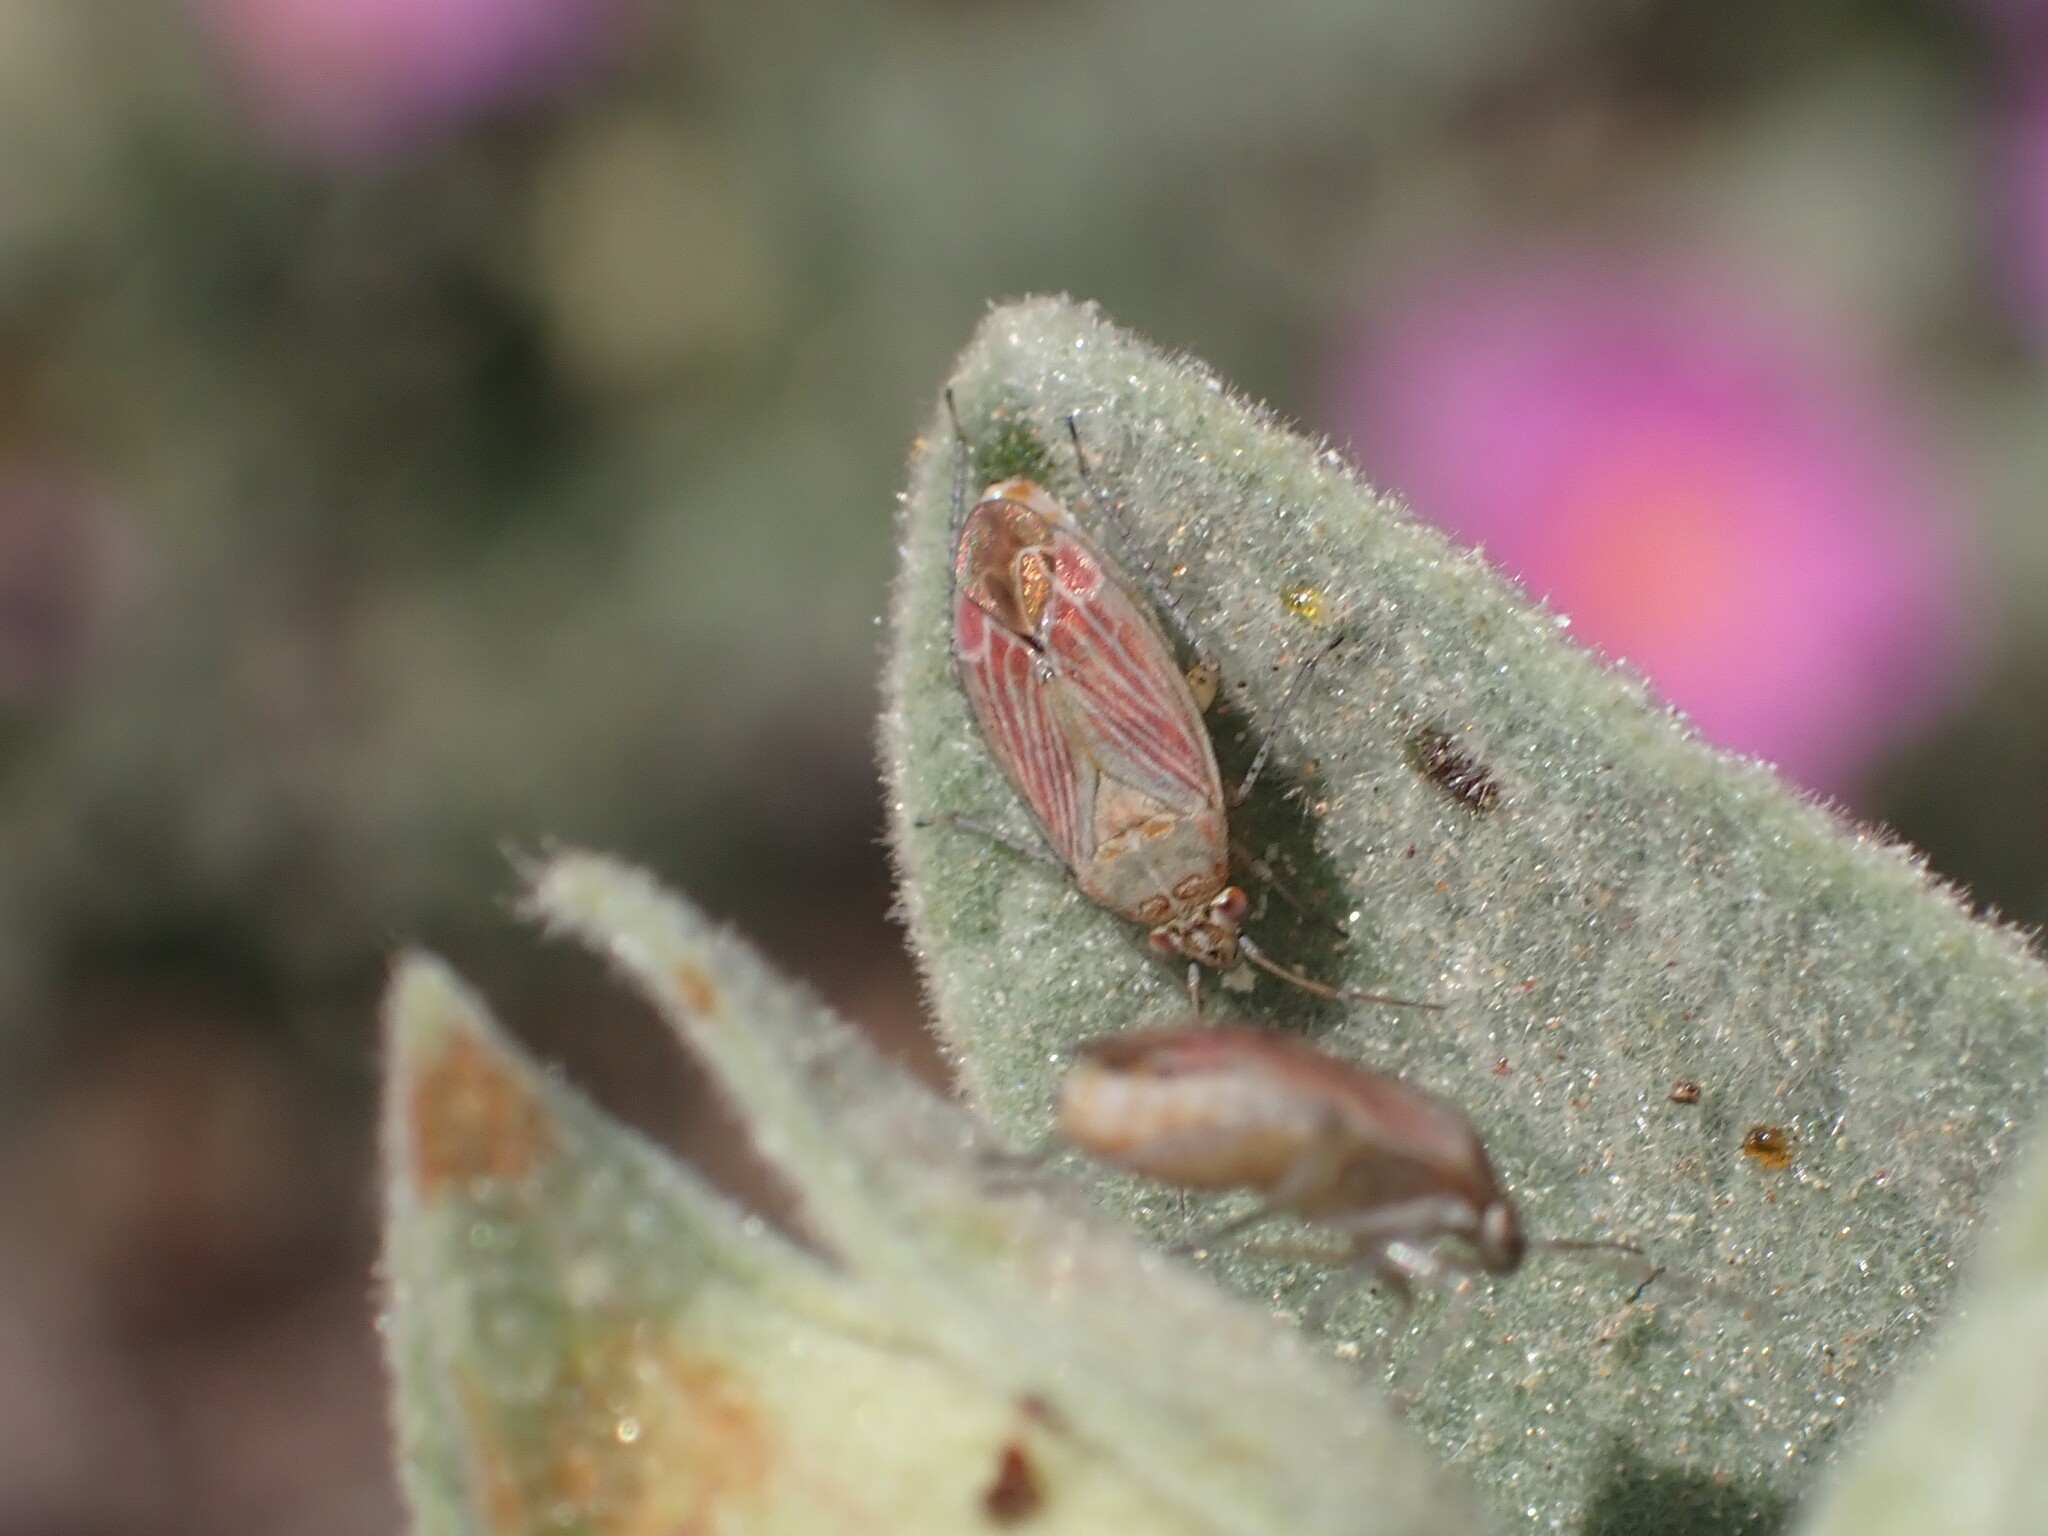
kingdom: Animalia
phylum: Arthropoda
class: Insecta
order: Hemiptera
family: Miridae
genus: Pachyxyphus
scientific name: Pachyxyphus lineellus
